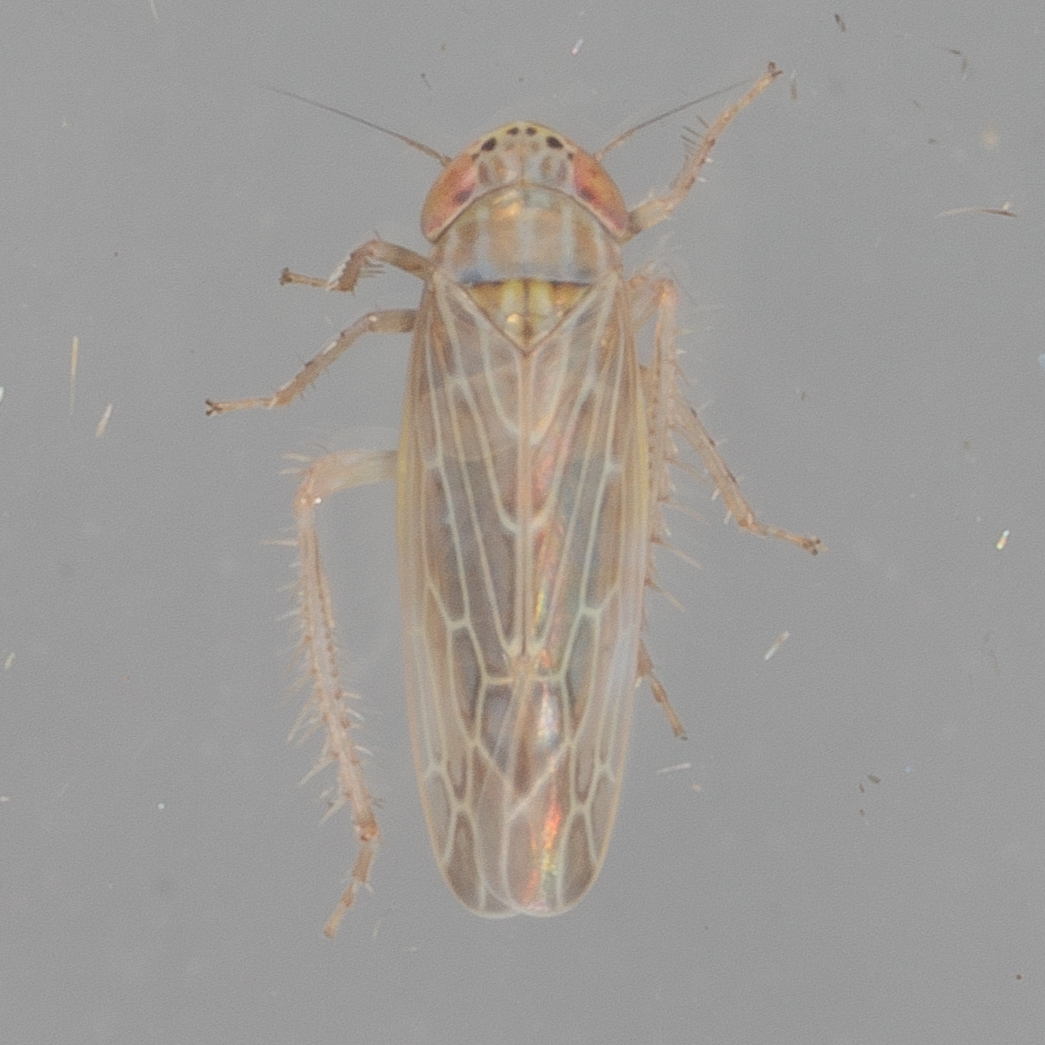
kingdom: Animalia
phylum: Arthropoda
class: Insecta
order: Hemiptera
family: Cicadellidae
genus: Graminella
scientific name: Graminella sonora
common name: Lesser lawn leafhopper
